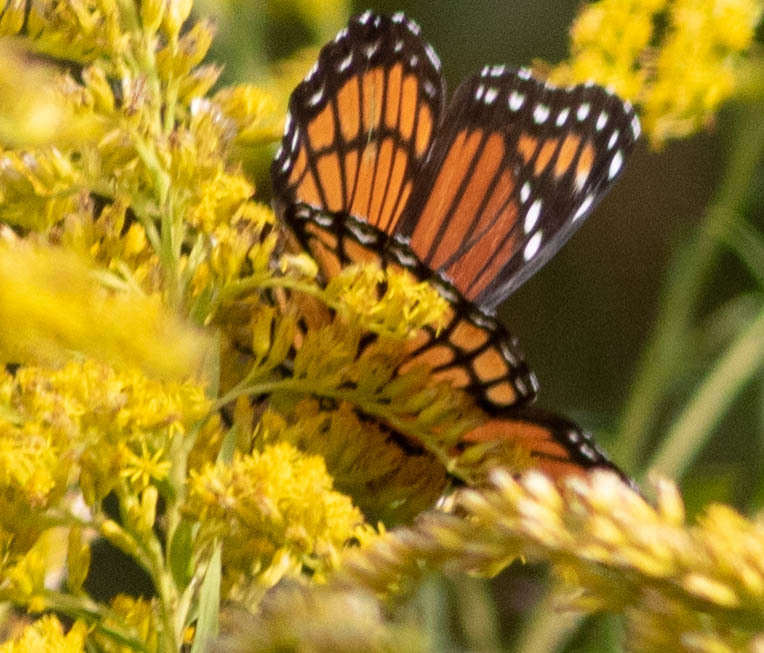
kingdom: Animalia
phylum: Arthropoda
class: Insecta
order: Lepidoptera
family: Nymphalidae
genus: Limenitis
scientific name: Limenitis archippus
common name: Viceroy
